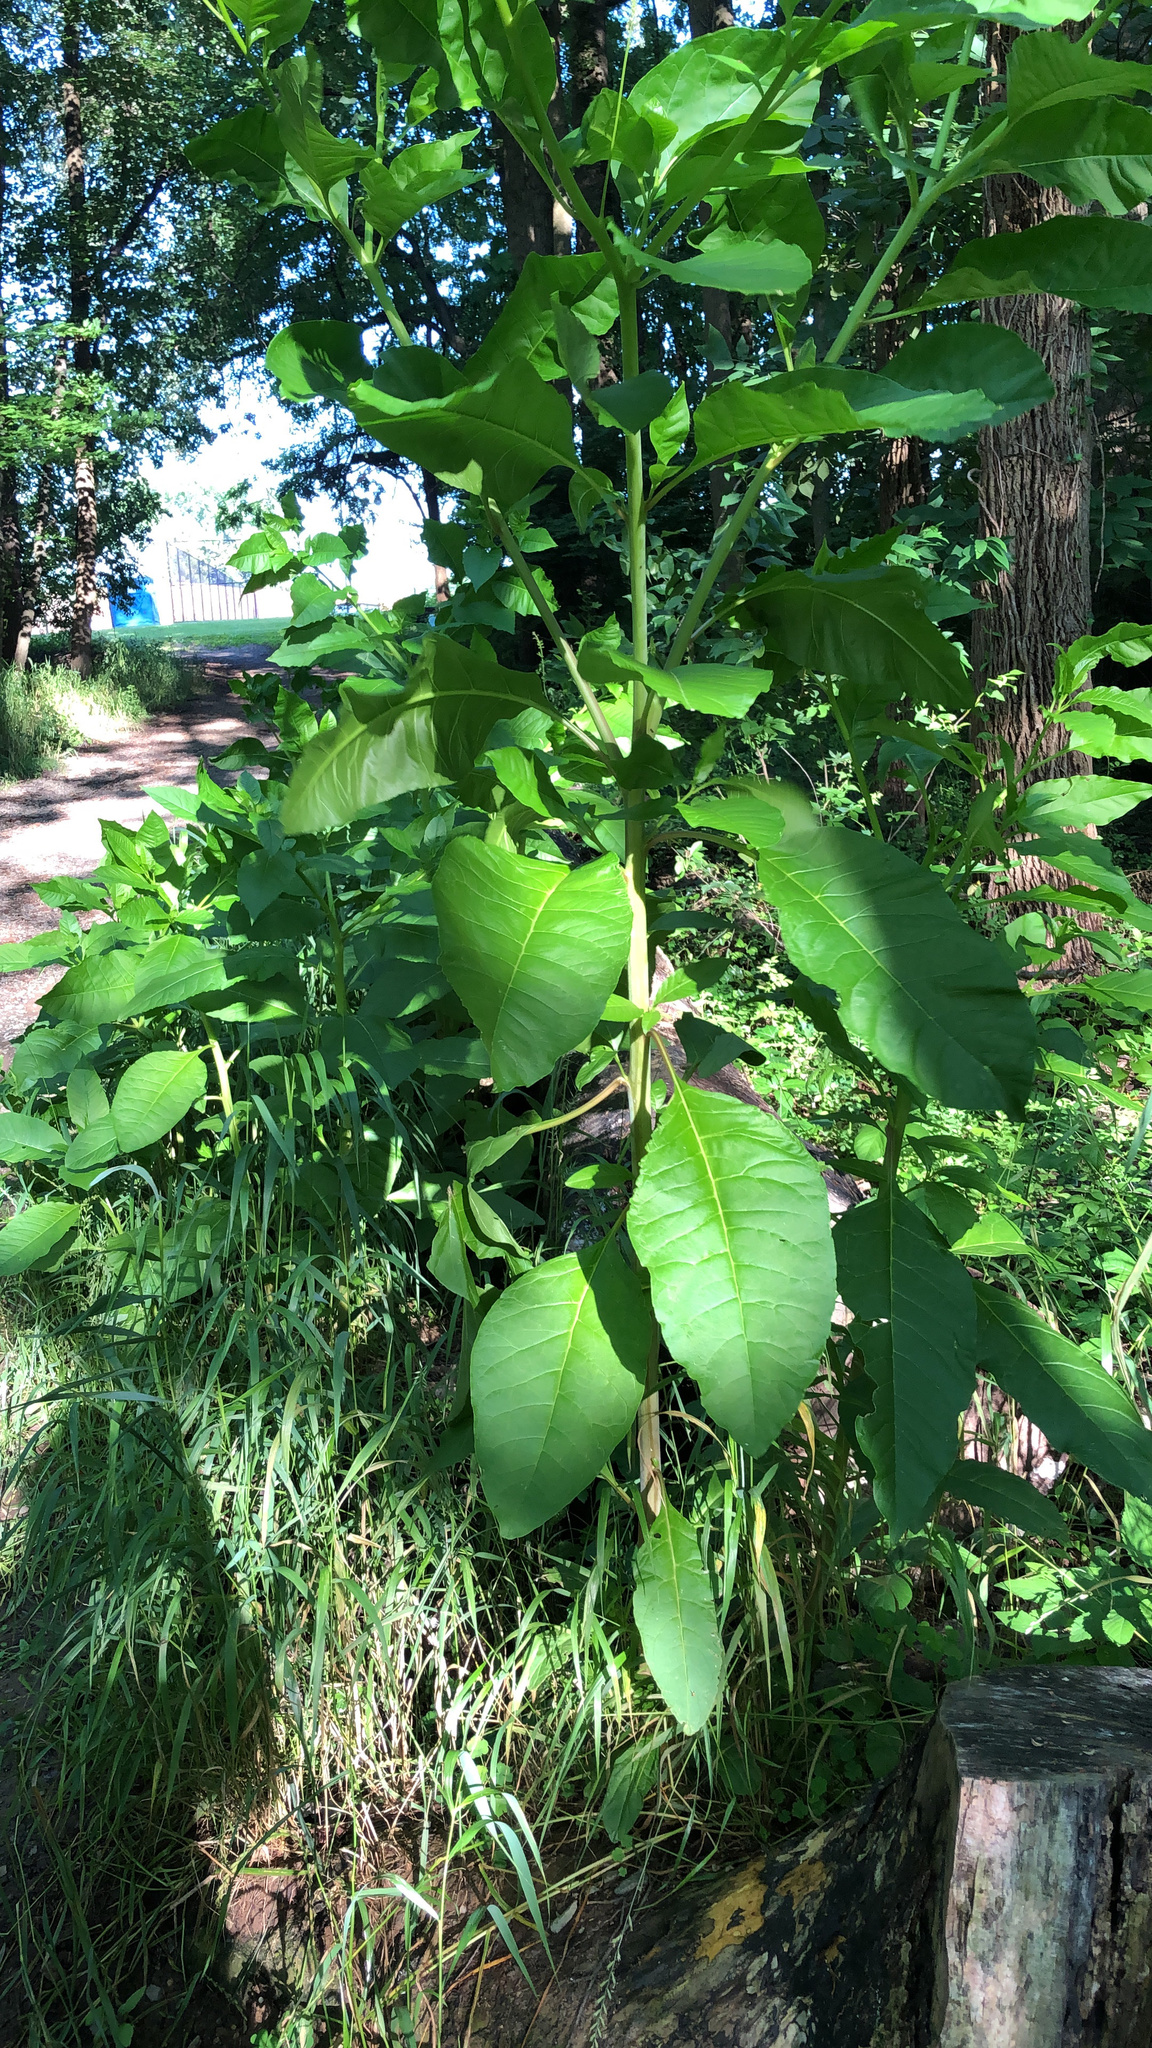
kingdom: Plantae
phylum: Tracheophyta
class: Magnoliopsida
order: Caryophyllales
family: Phytolaccaceae
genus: Phytolacca
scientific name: Phytolacca americana
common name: American pokeweed
